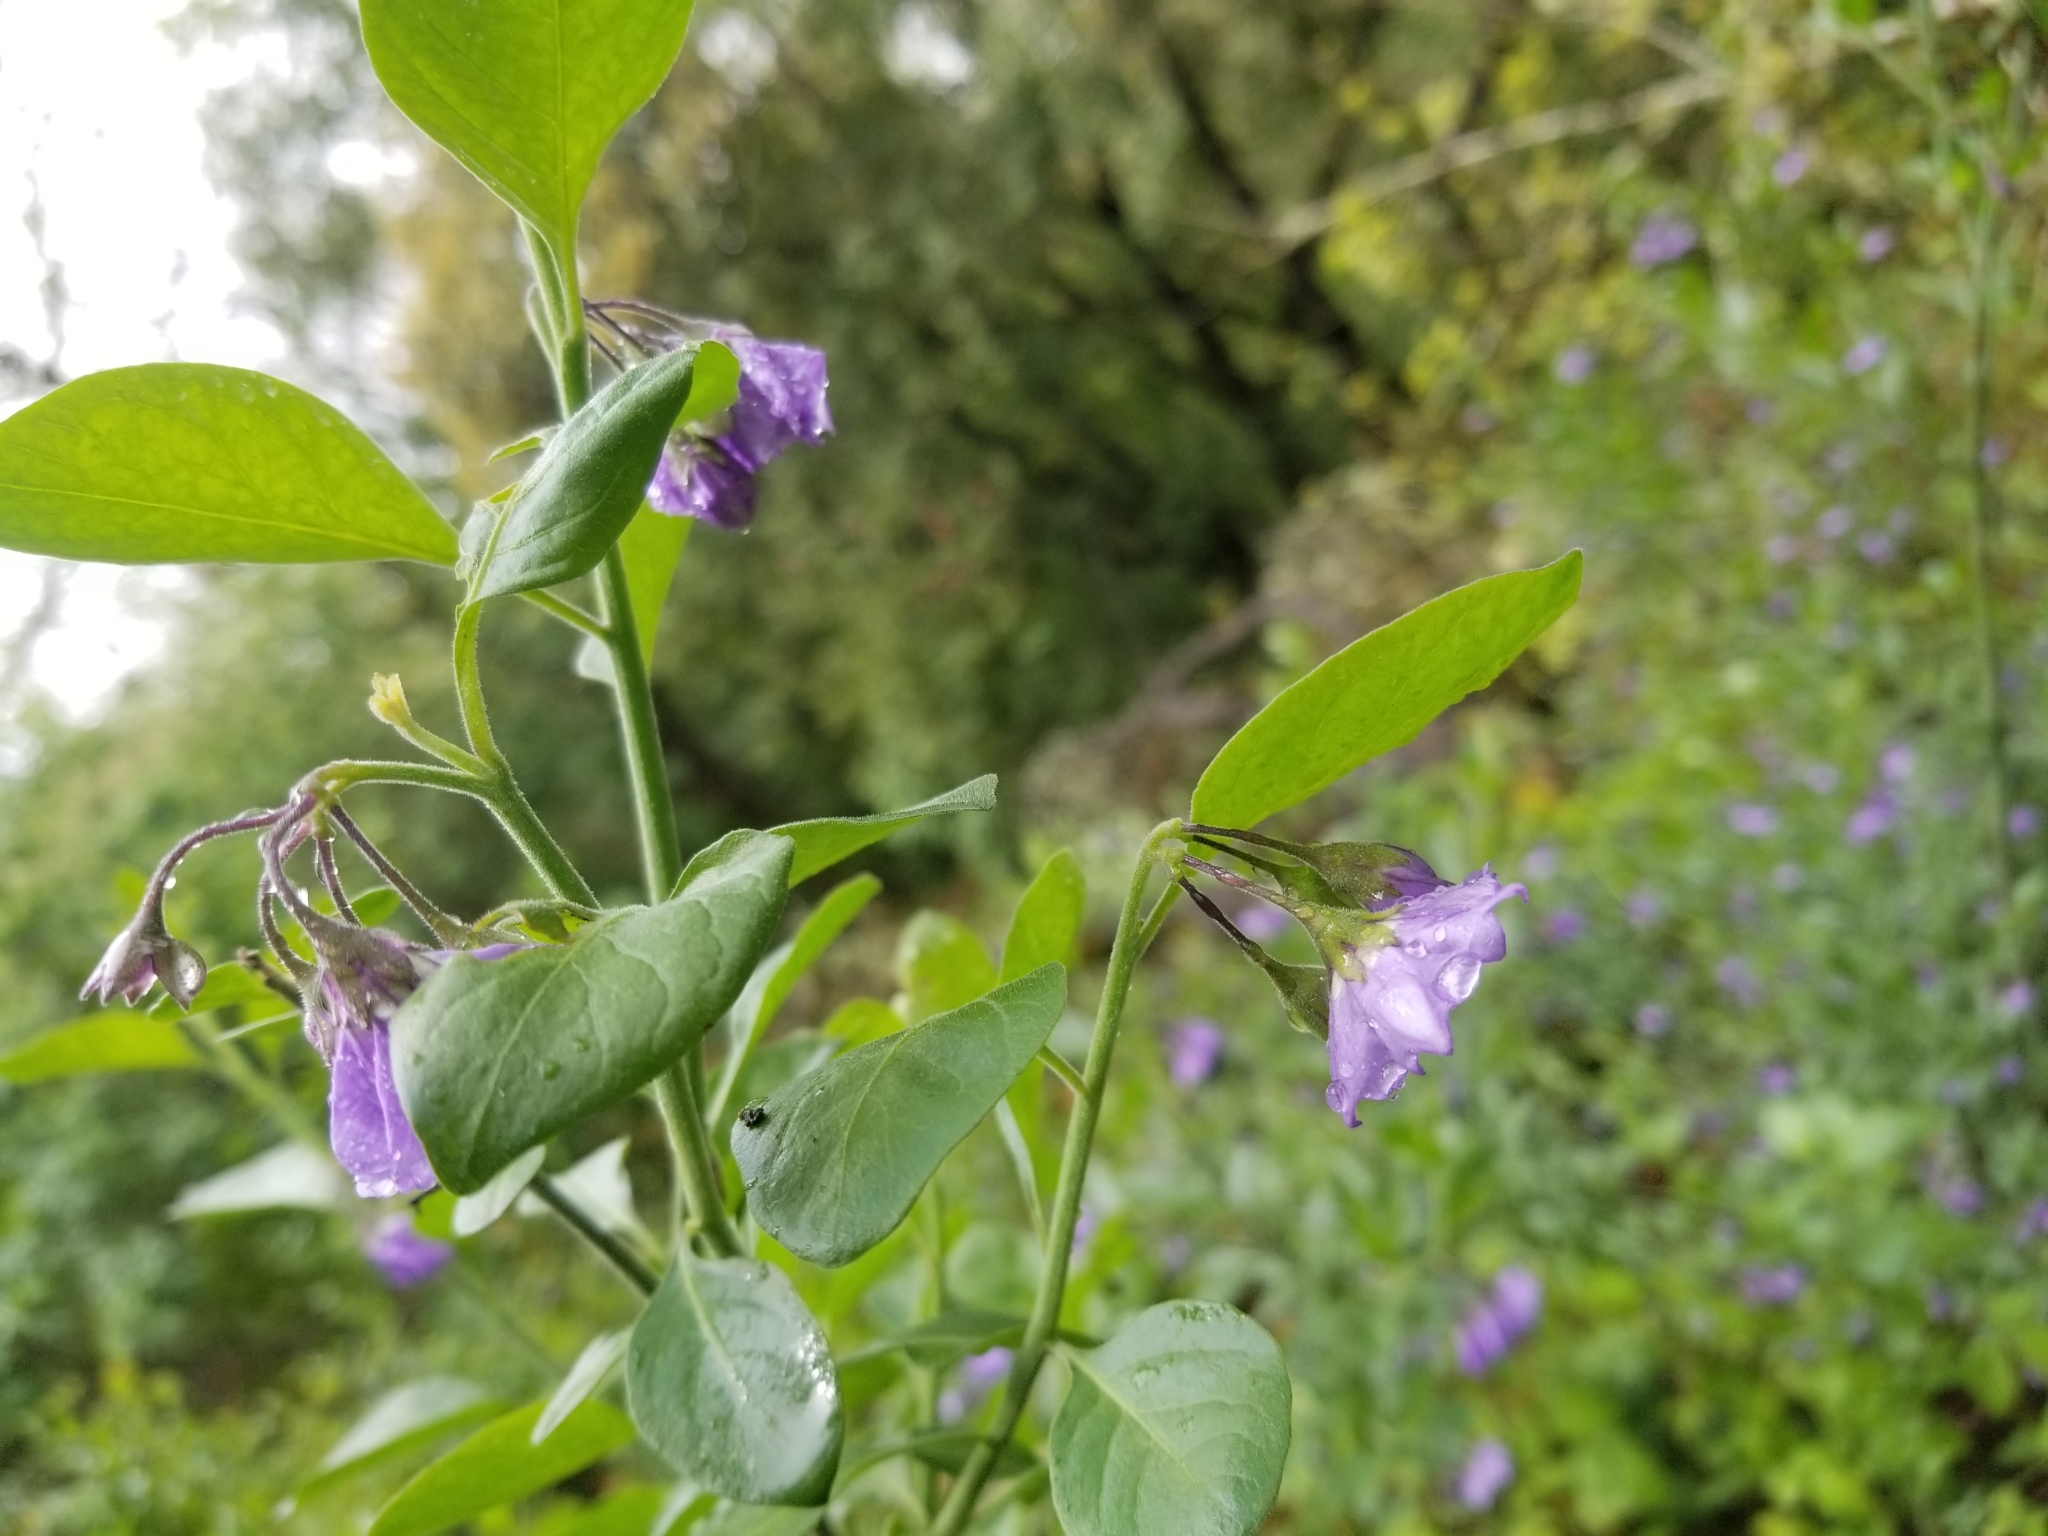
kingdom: Plantae
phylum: Tracheophyta
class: Magnoliopsida
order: Solanales
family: Solanaceae
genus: Solanum
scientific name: Solanum umbelliferum
